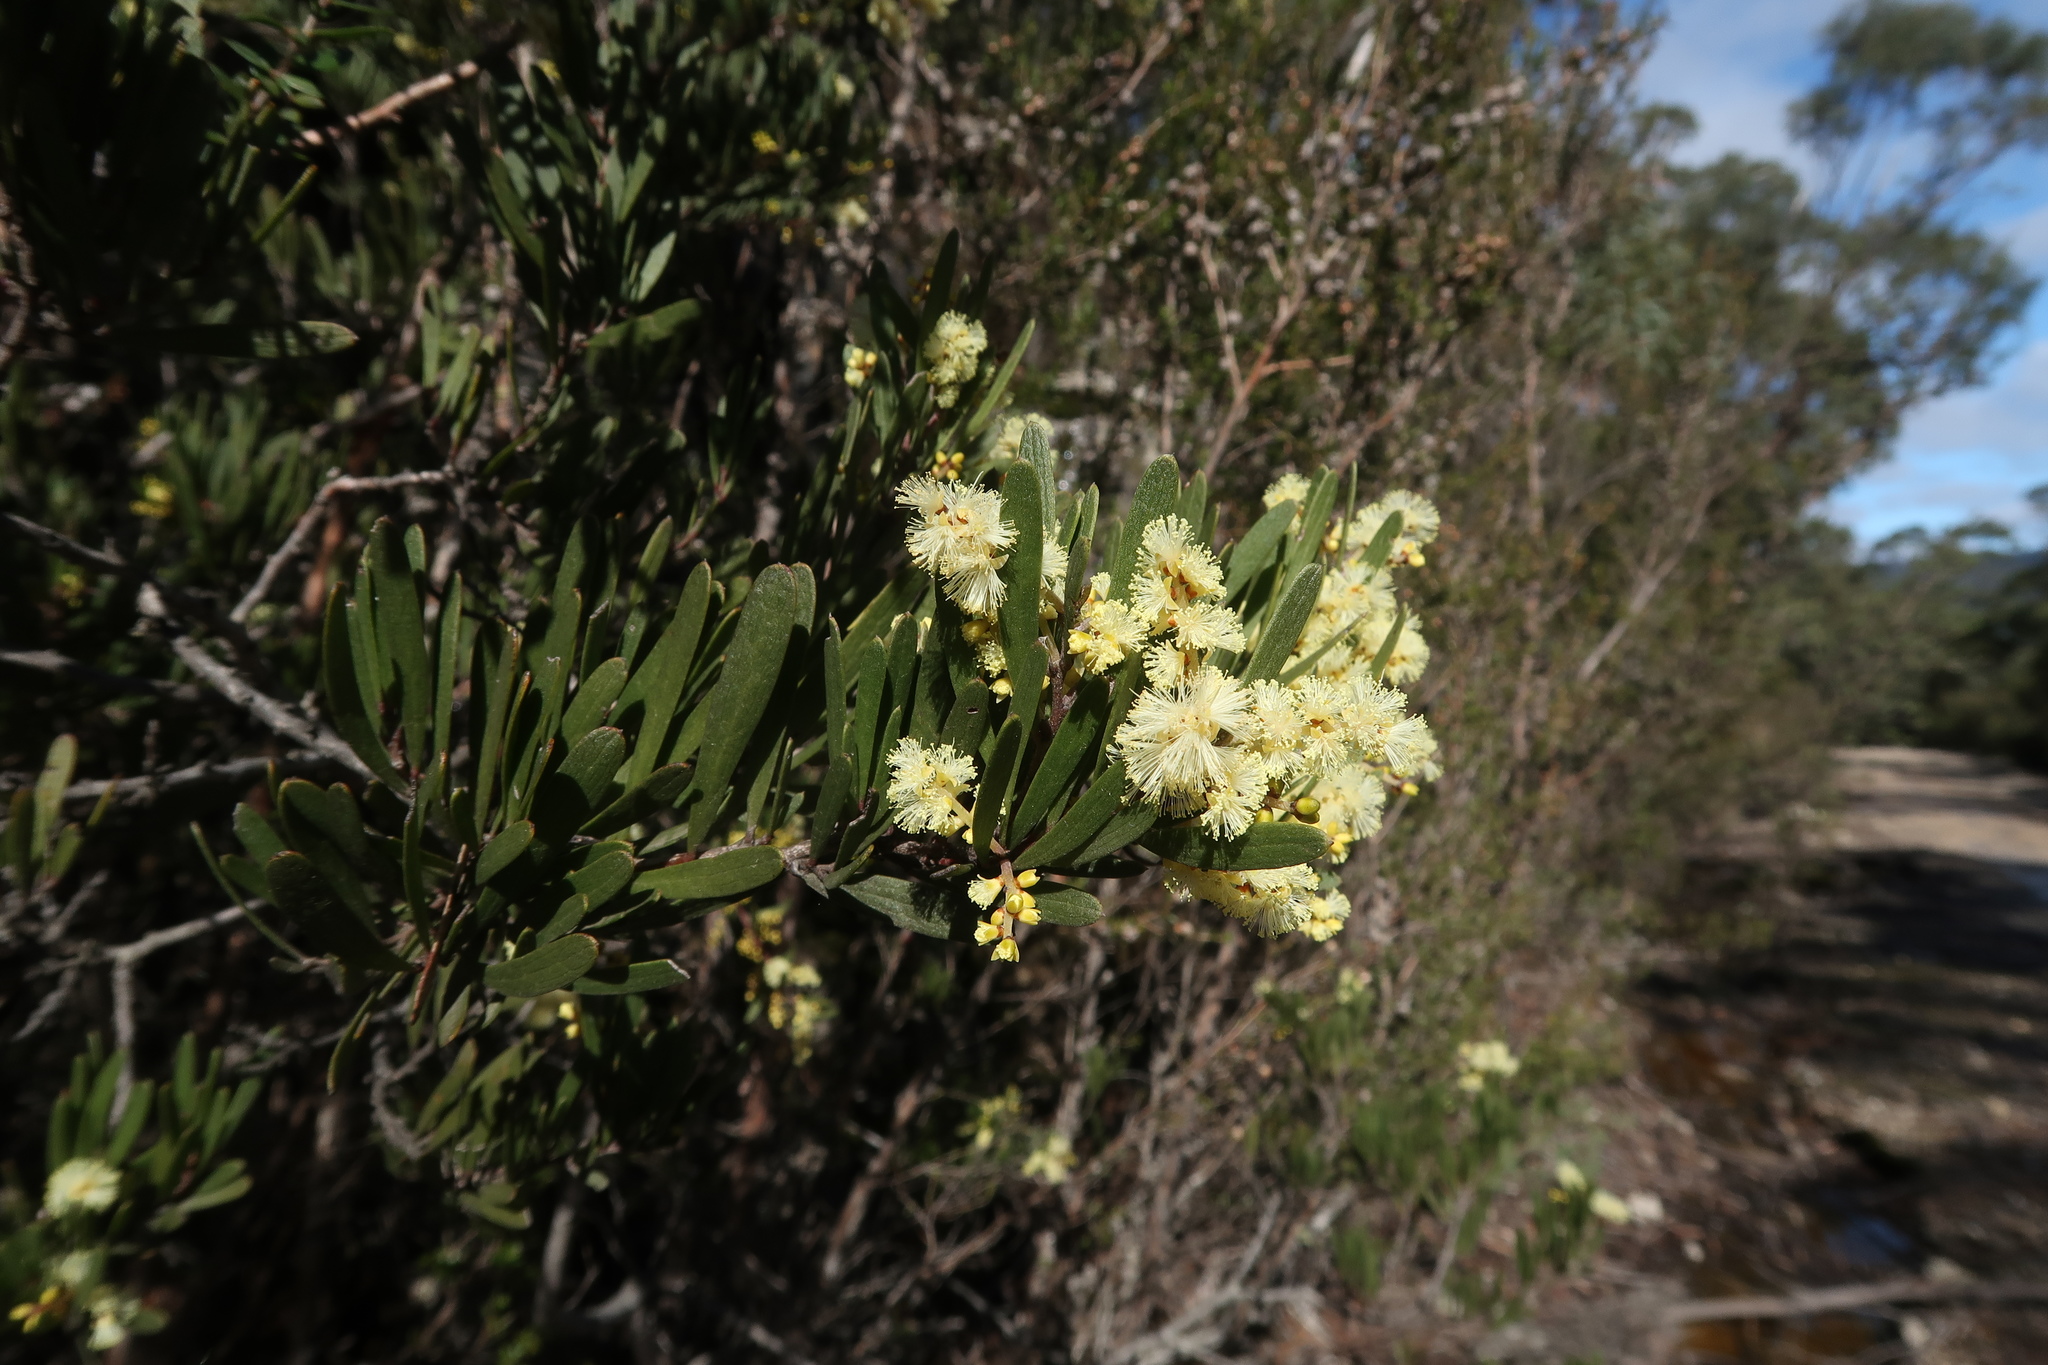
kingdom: Plantae
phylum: Tracheophyta
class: Magnoliopsida
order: Fabales
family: Fabaceae
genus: Acacia
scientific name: Acacia mucronata
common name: Variable sallow wattle
